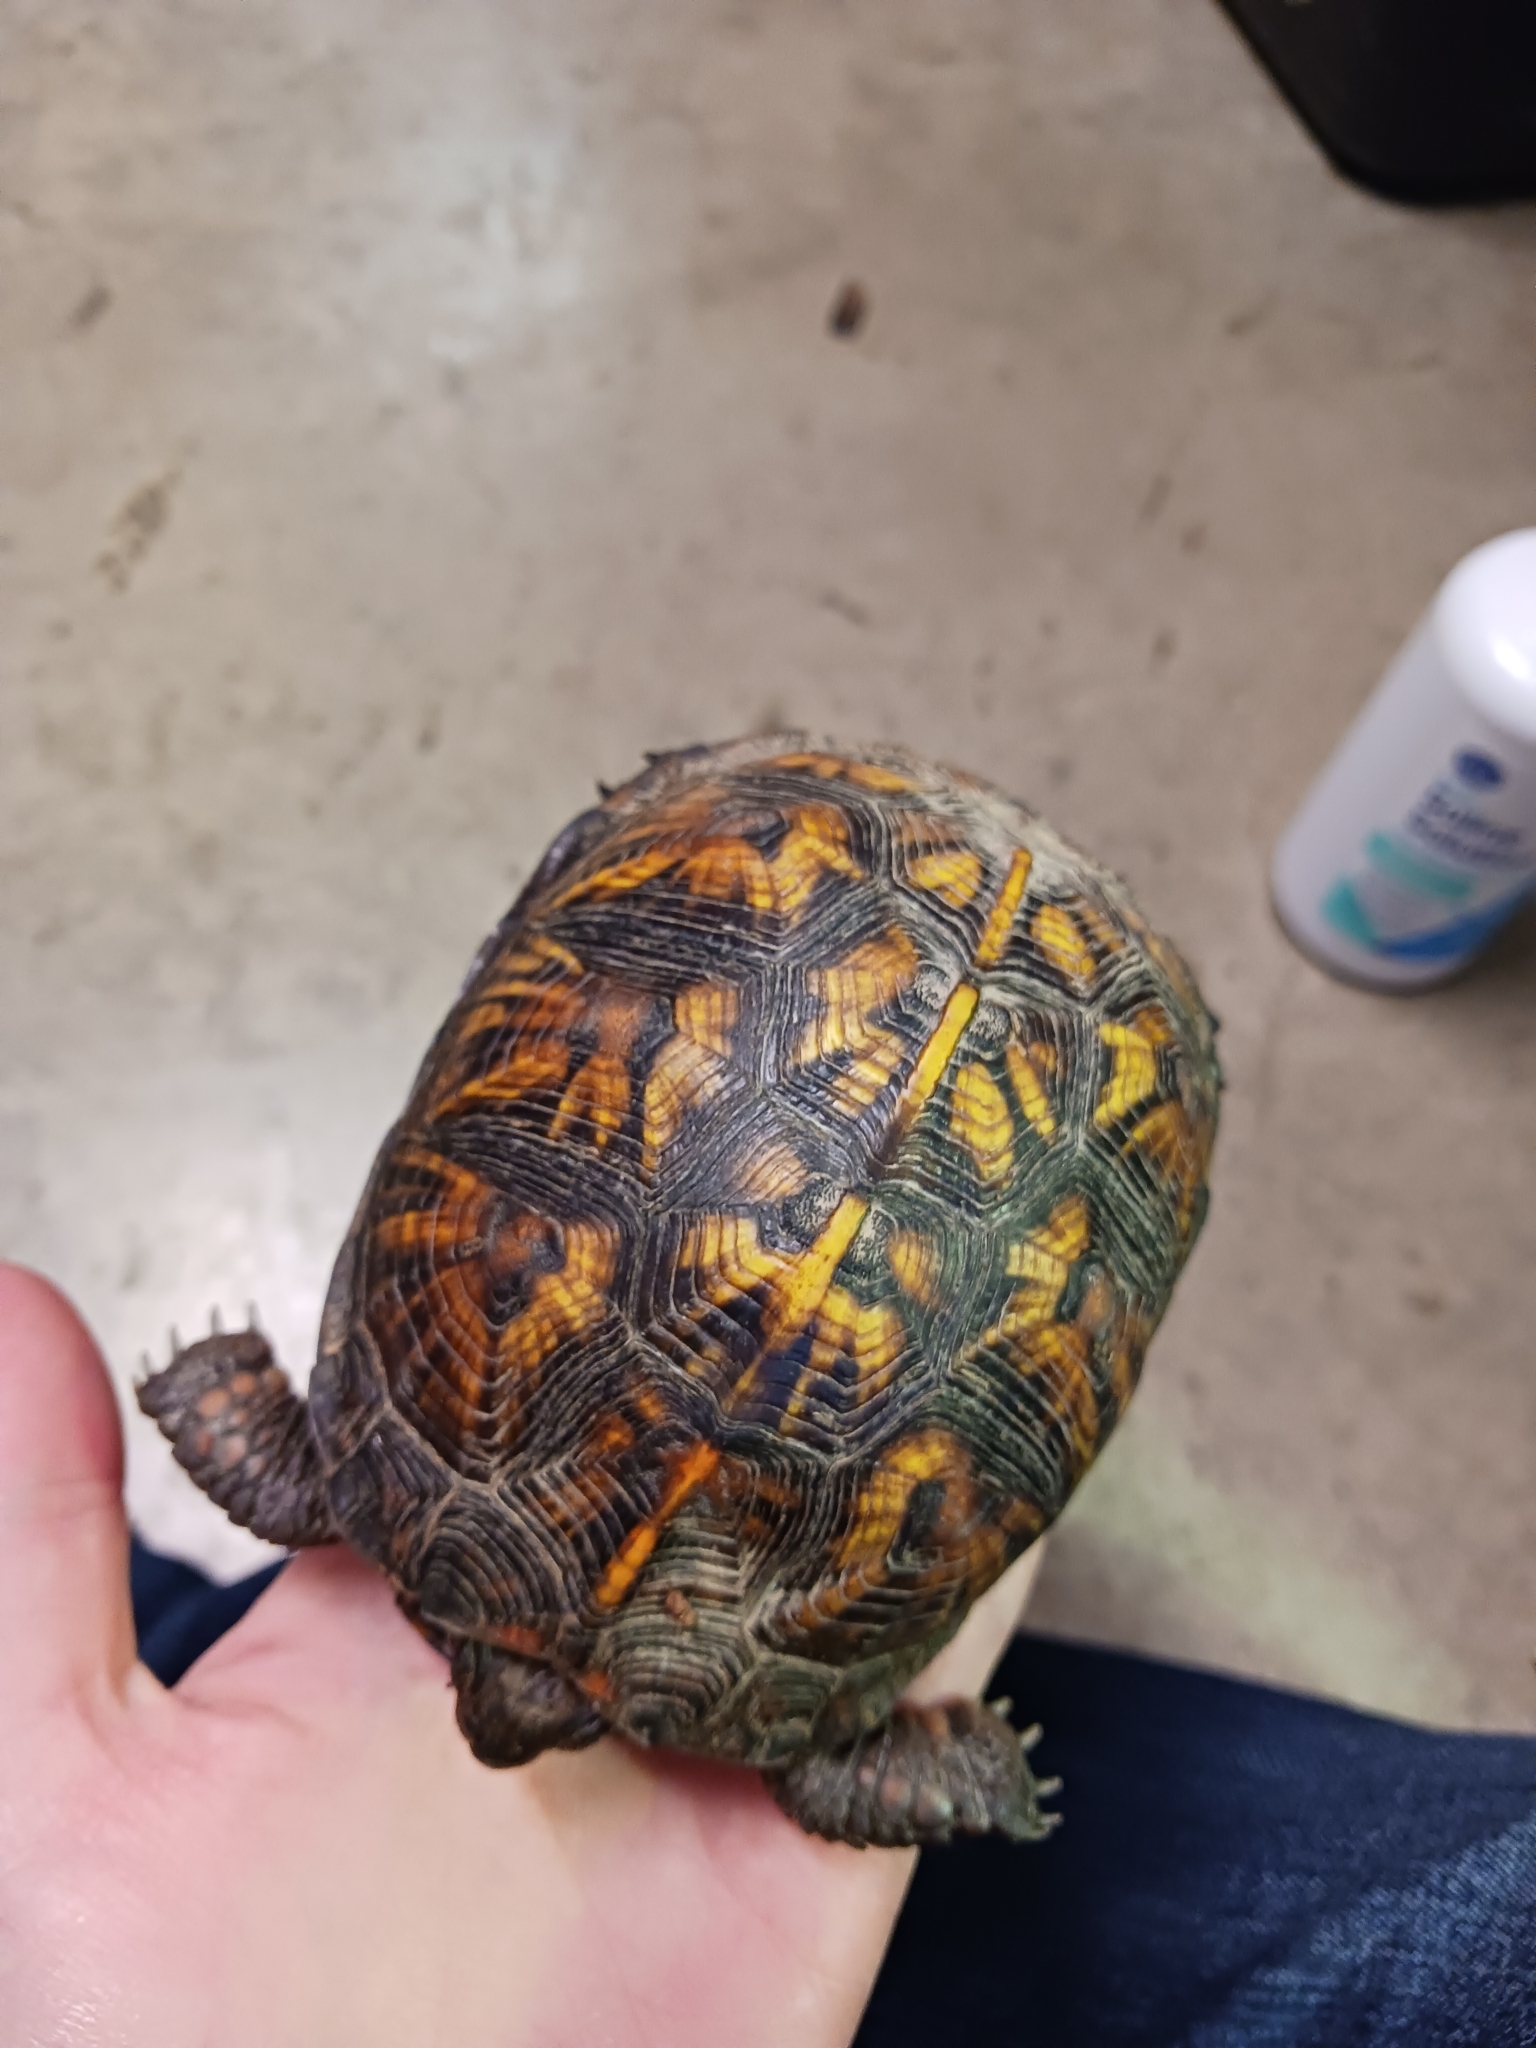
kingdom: Animalia
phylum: Chordata
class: Testudines
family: Emydidae
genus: Terrapene
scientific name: Terrapene carolina
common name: Common box turtle
